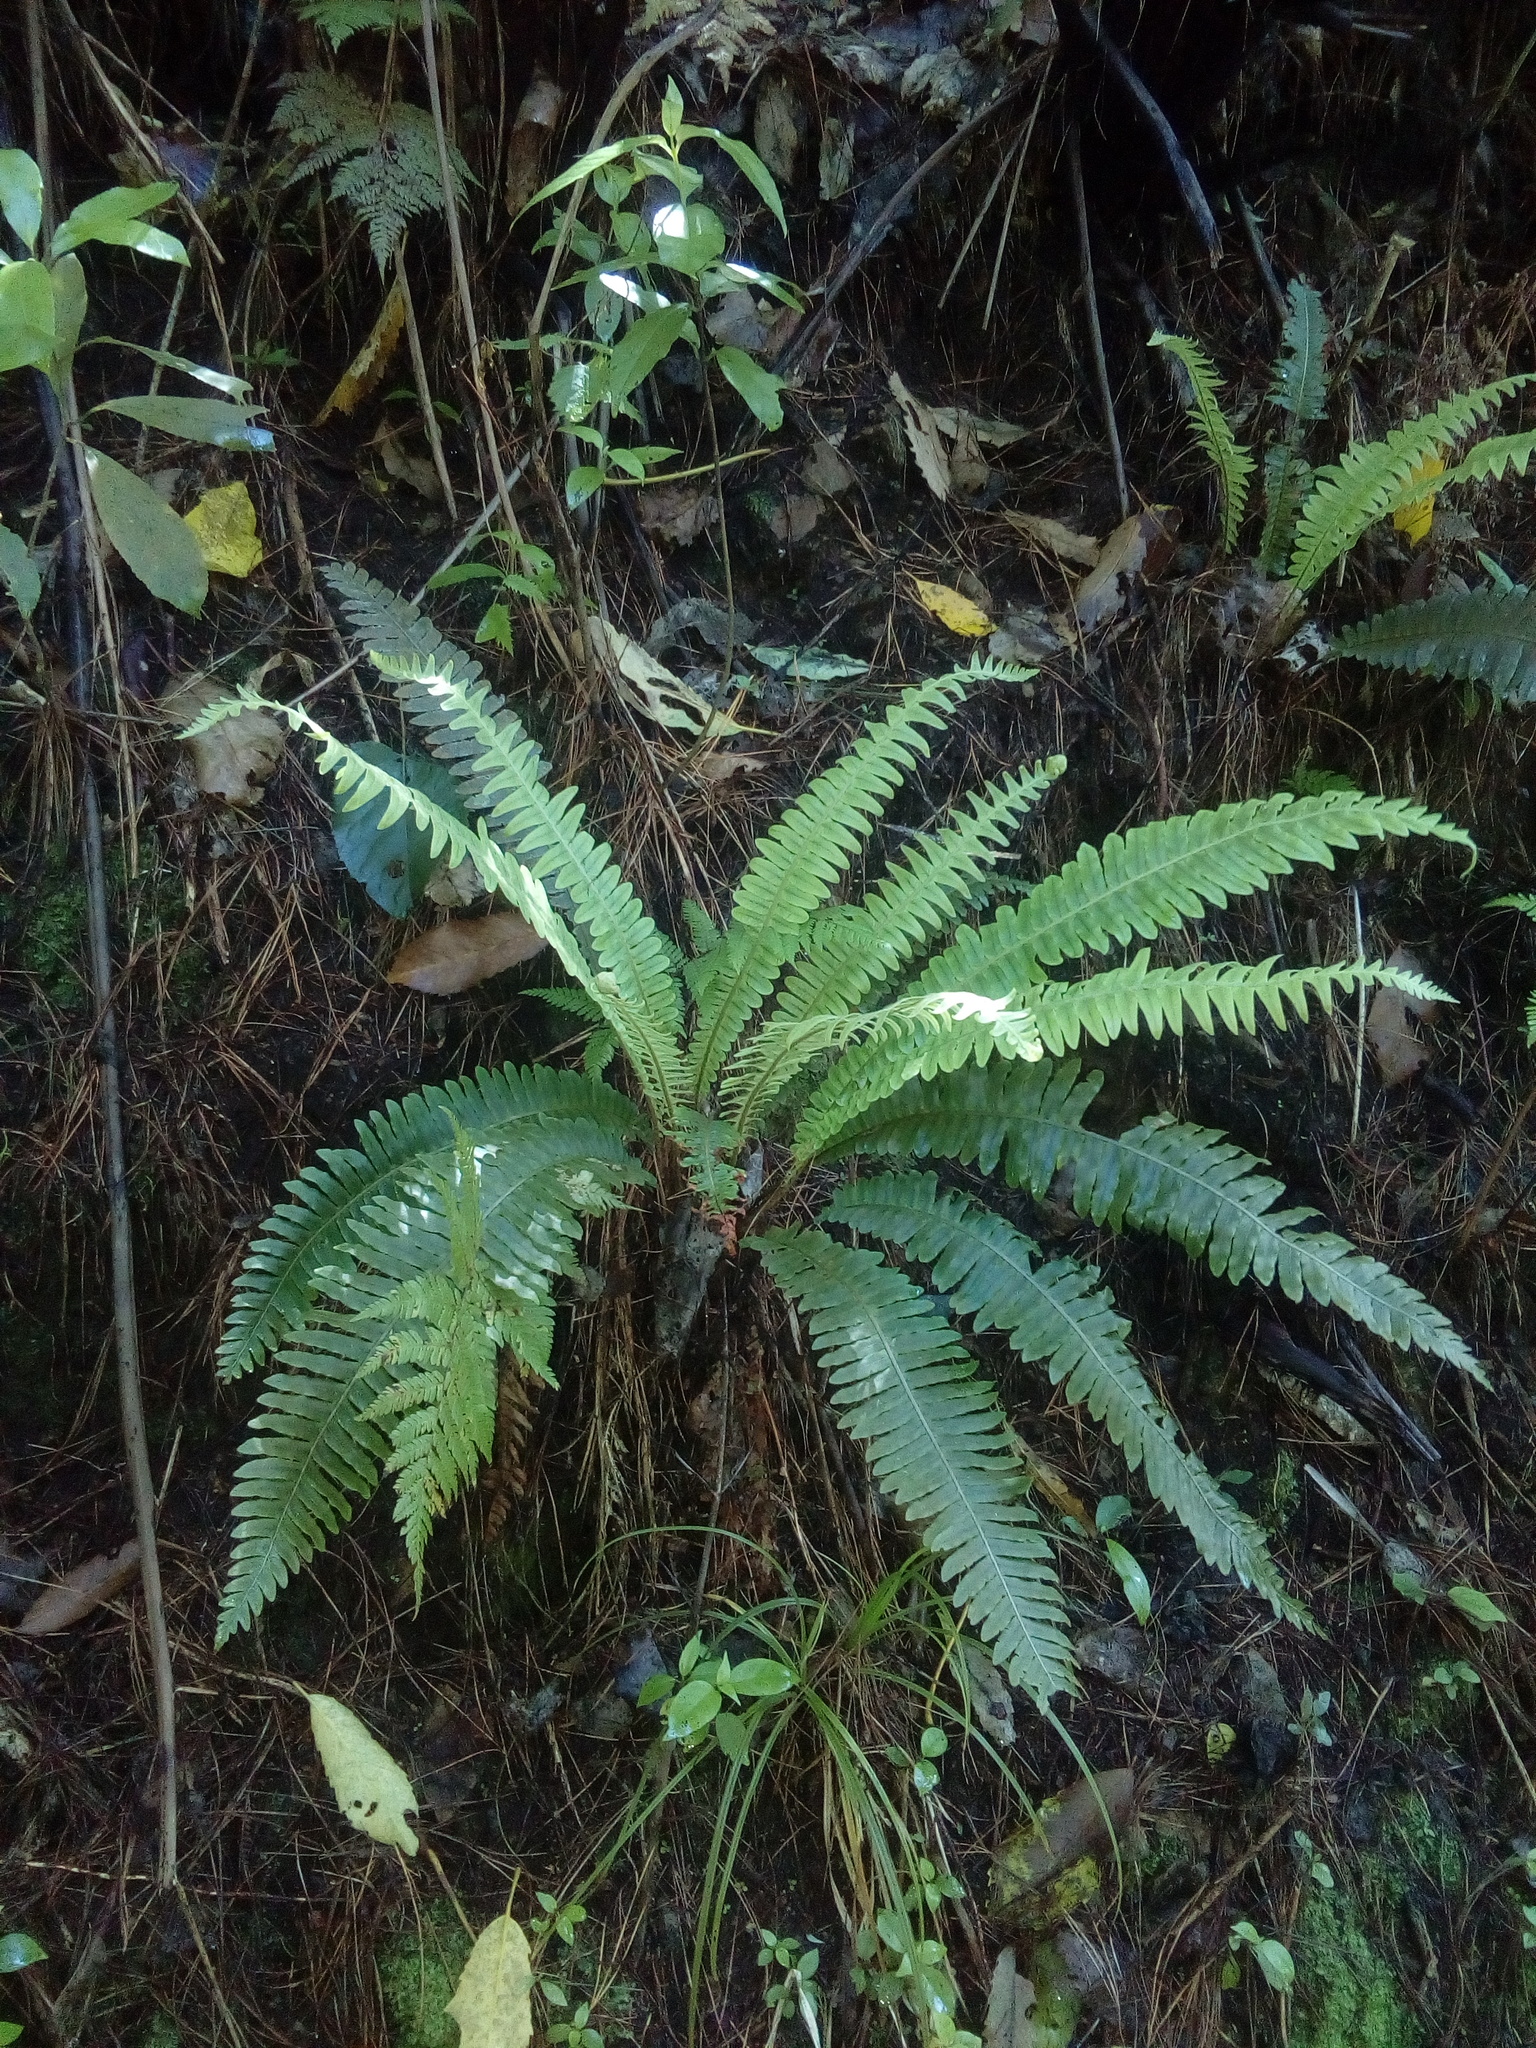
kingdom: Plantae
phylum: Tracheophyta
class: Polypodiopsida
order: Polypodiales
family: Blechnaceae
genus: Lomaria
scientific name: Lomaria discolor
